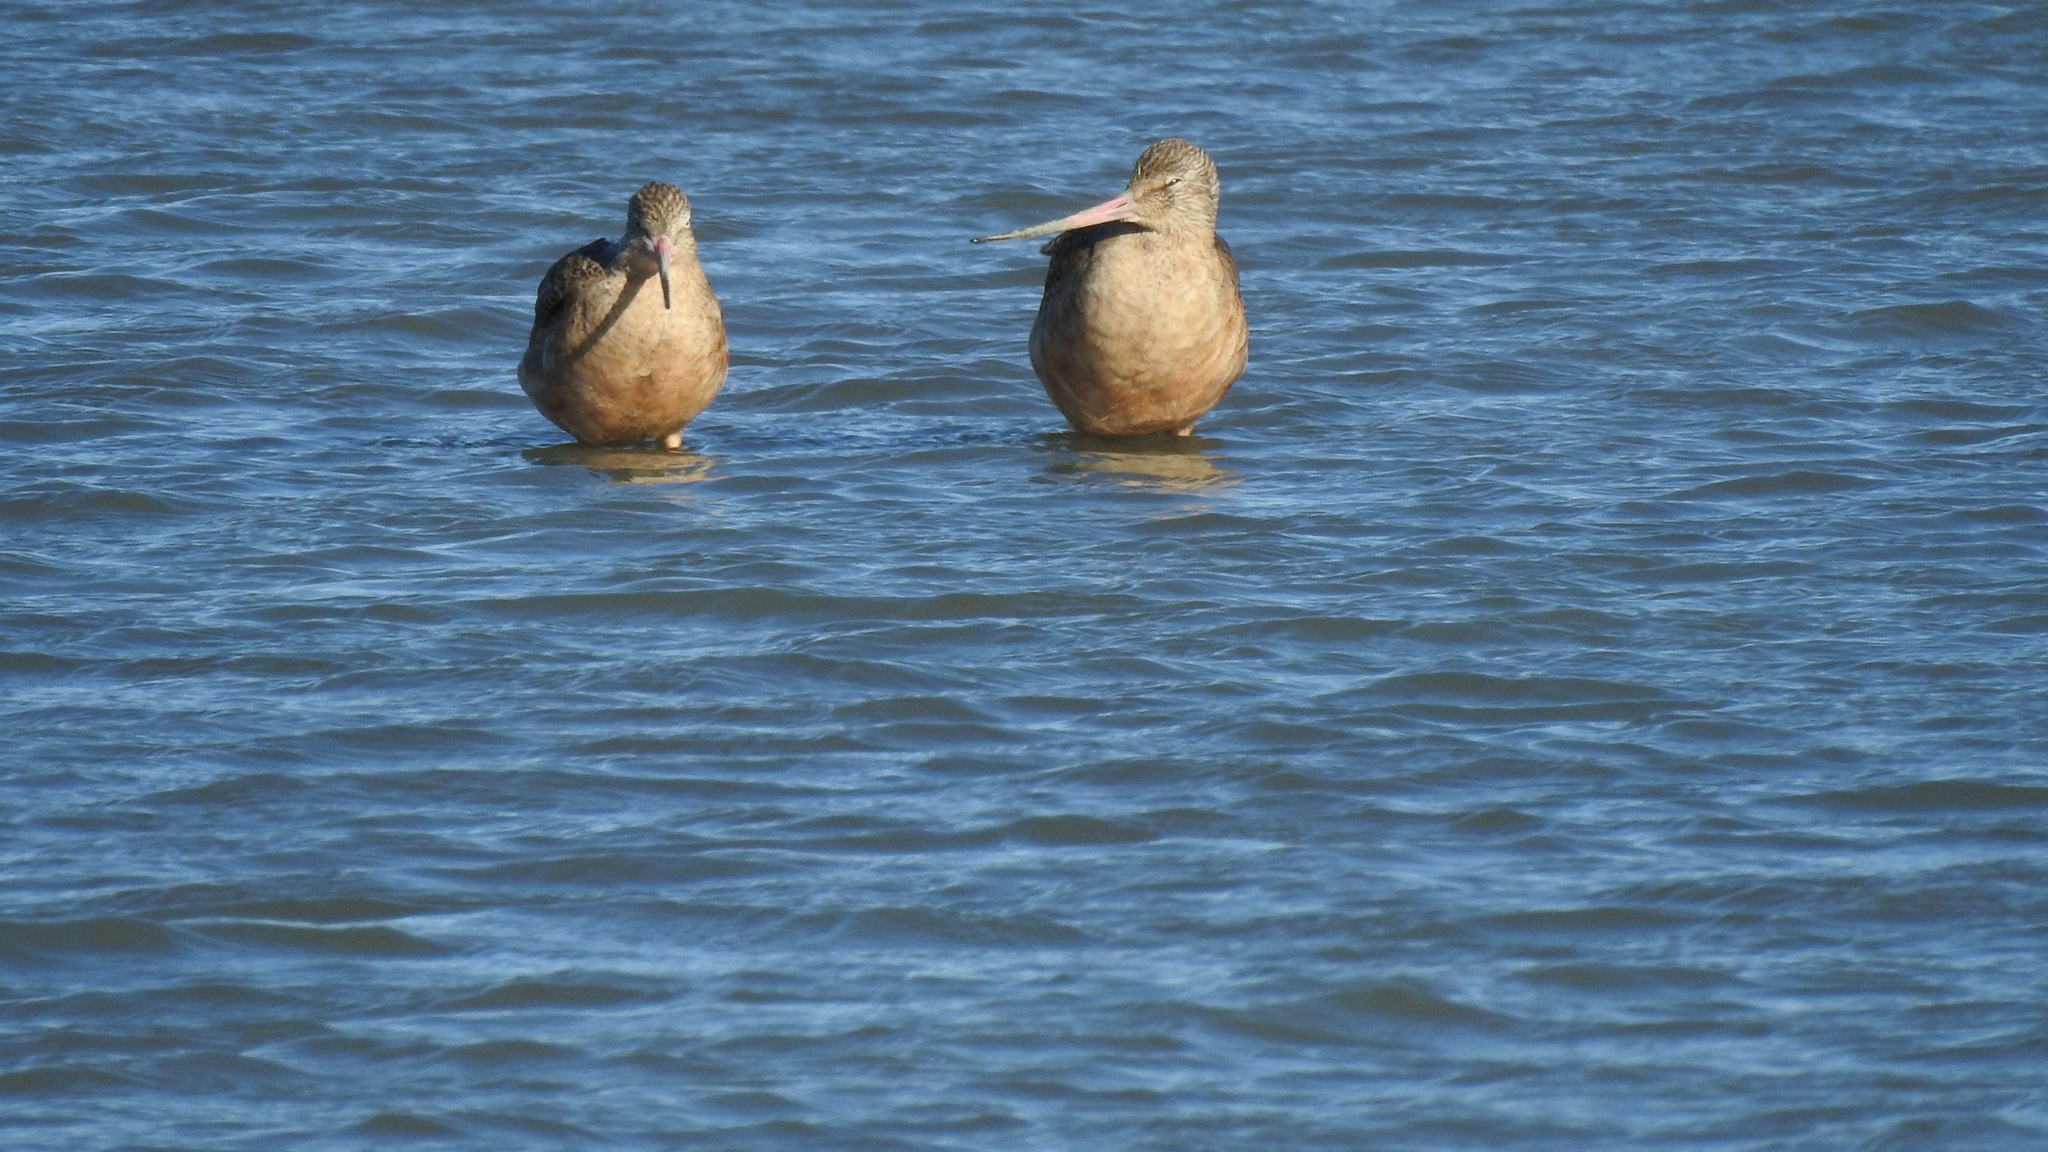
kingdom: Animalia
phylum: Chordata
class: Aves
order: Charadriiformes
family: Scolopacidae
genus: Limosa
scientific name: Limosa fedoa
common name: Marbled godwit
